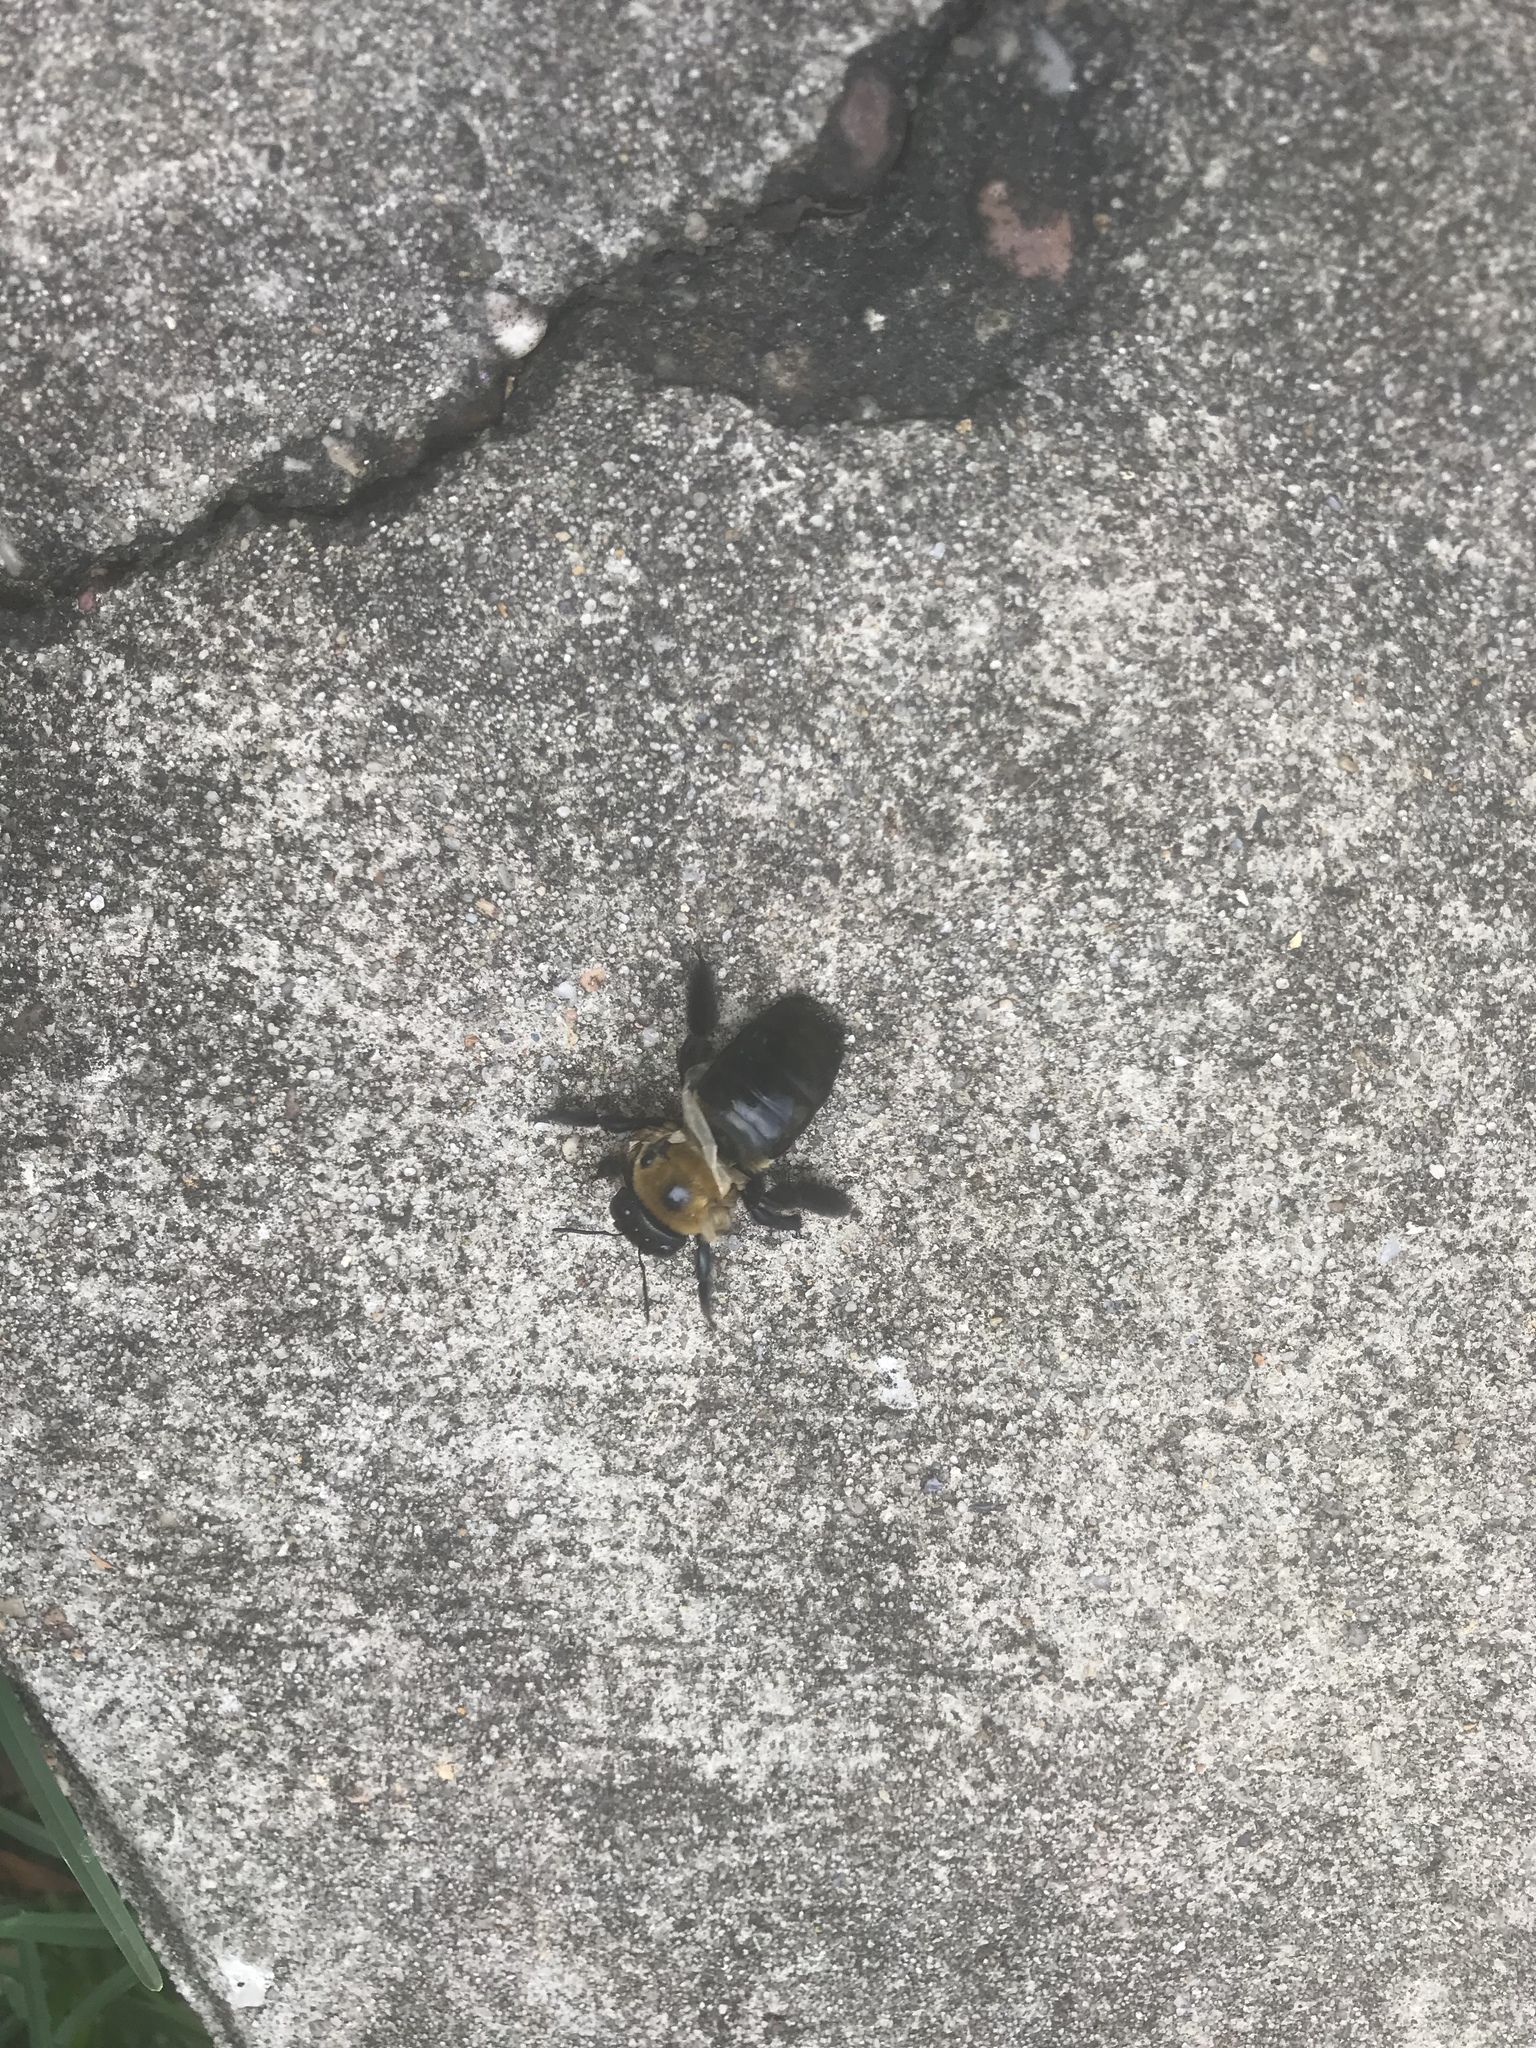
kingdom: Animalia
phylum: Arthropoda
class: Insecta
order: Hymenoptera
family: Apidae
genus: Xylocopa
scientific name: Xylocopa virginica
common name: Carpenter bee
